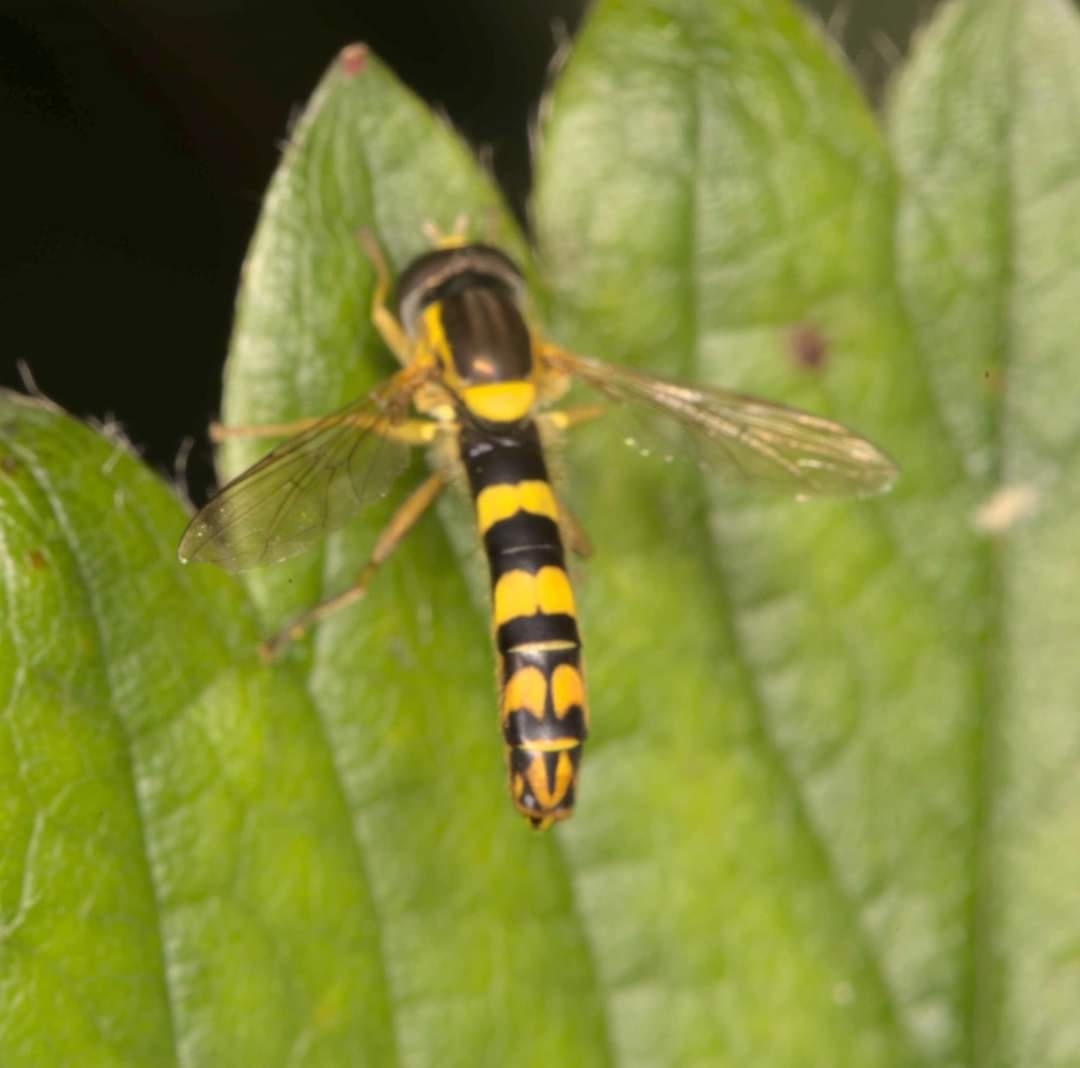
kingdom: Animalia
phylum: Arthropoda
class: Insecta
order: Diptera
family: Syrphidae
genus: Sphaerophoria
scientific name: Sphaerophoria scripta
